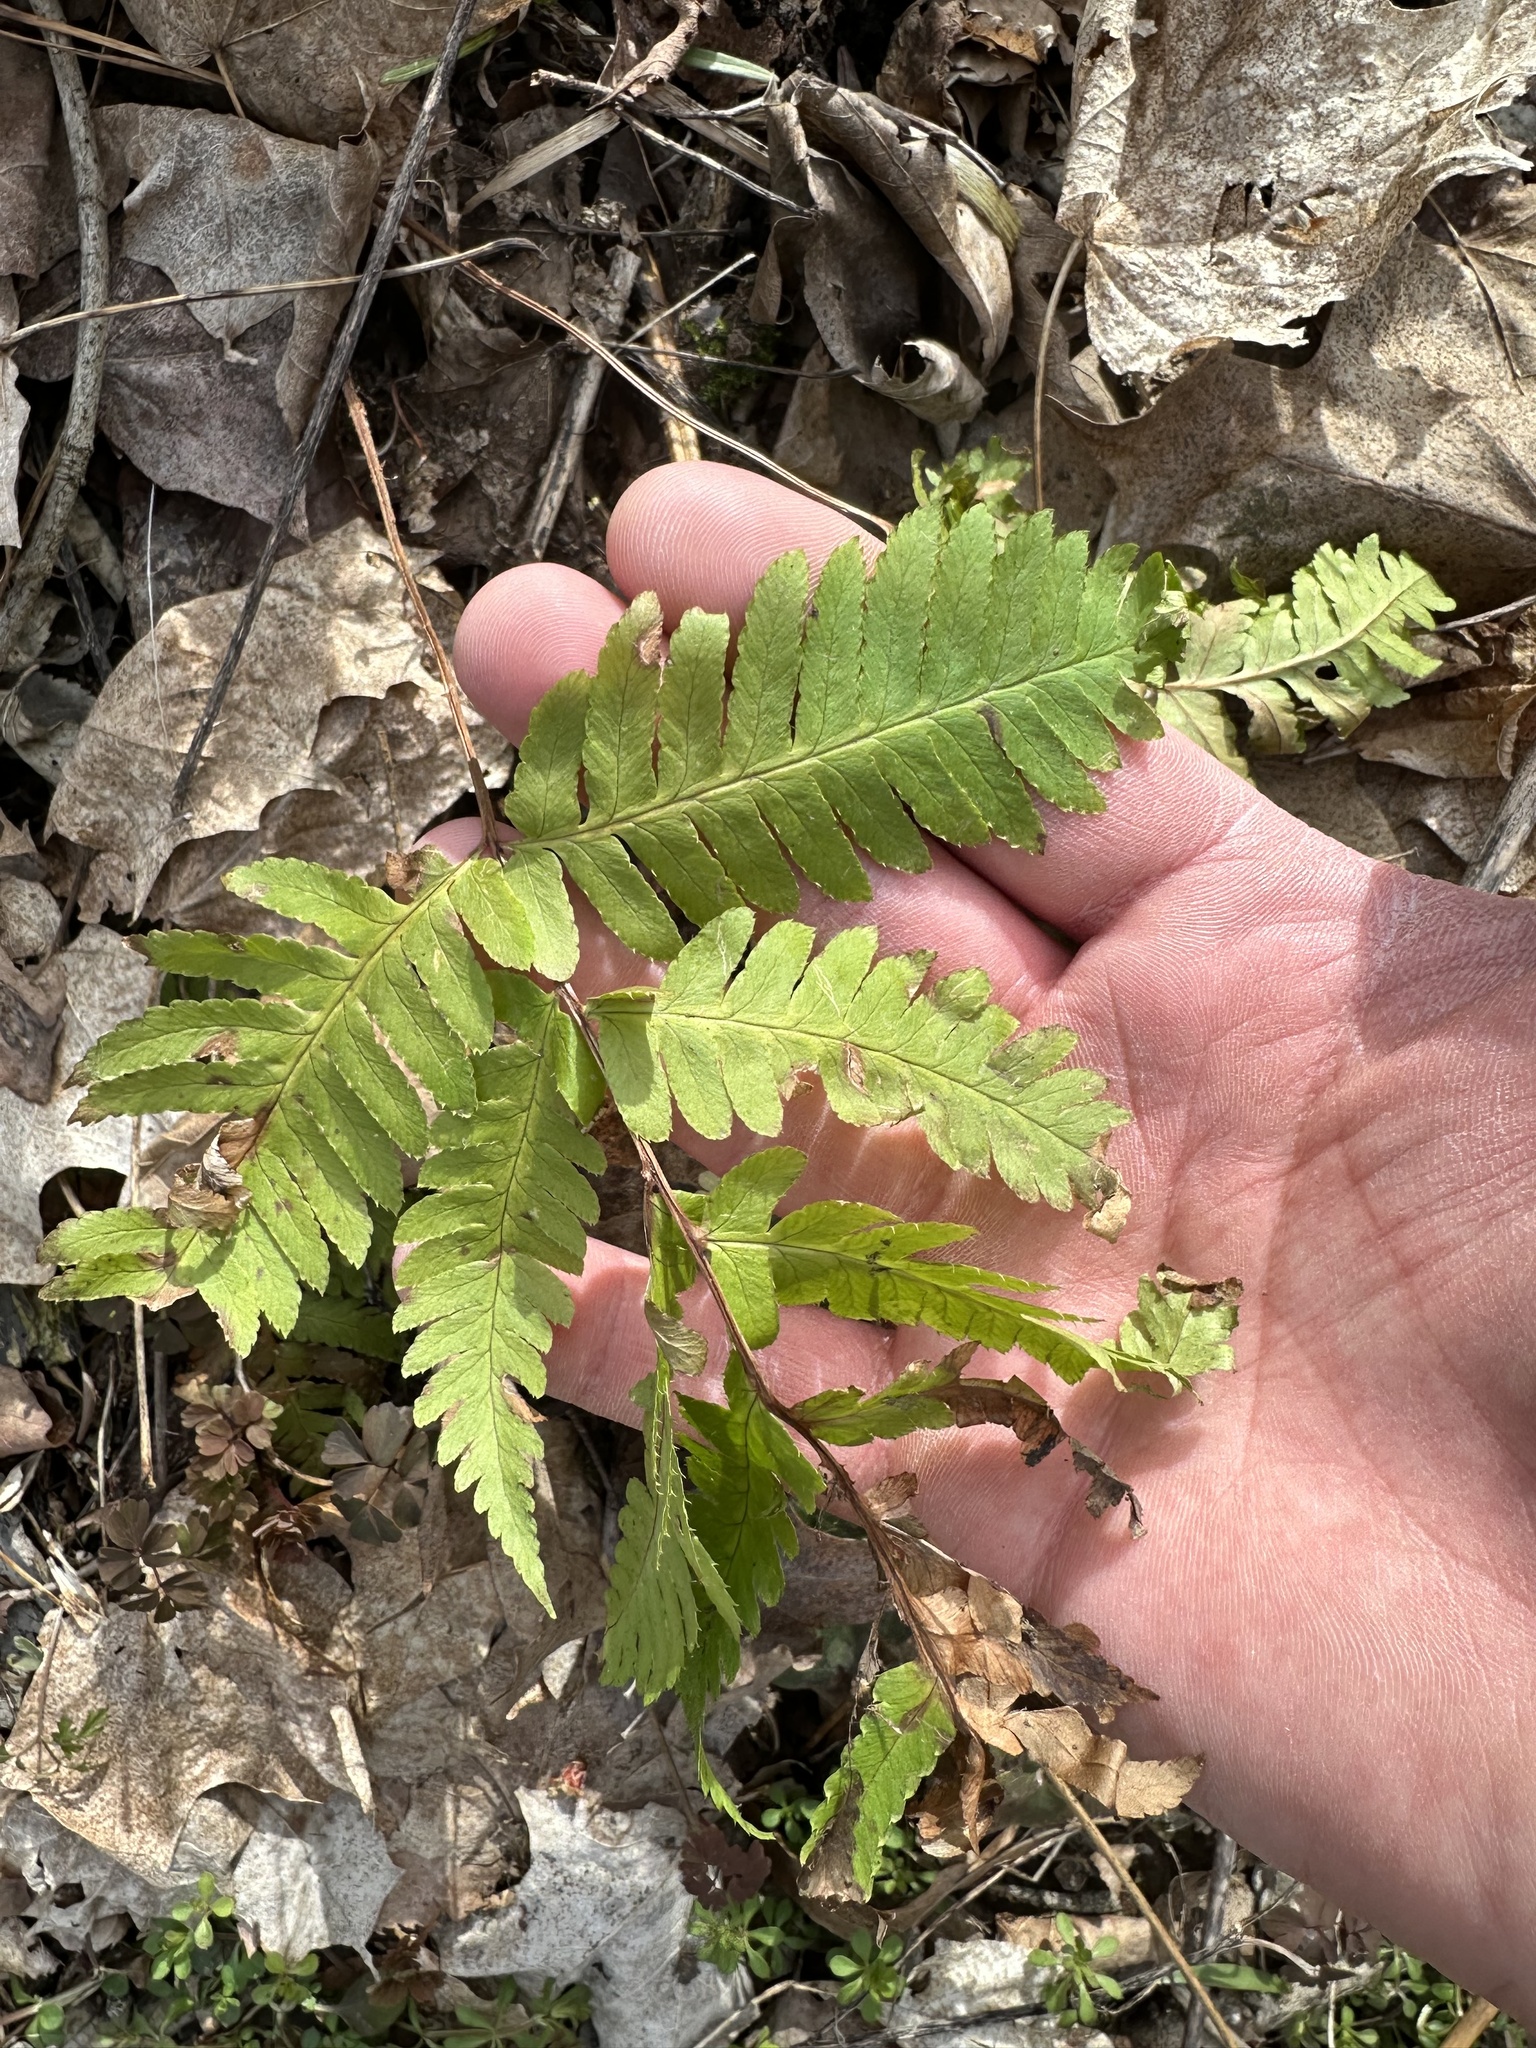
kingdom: Plantae
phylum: Tracheophyta
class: Polypodiopsida
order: Polypodiales
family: Dryopteridaceae
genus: Dryopteris
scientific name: Dryopteris goldieana
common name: Goldie's fern
